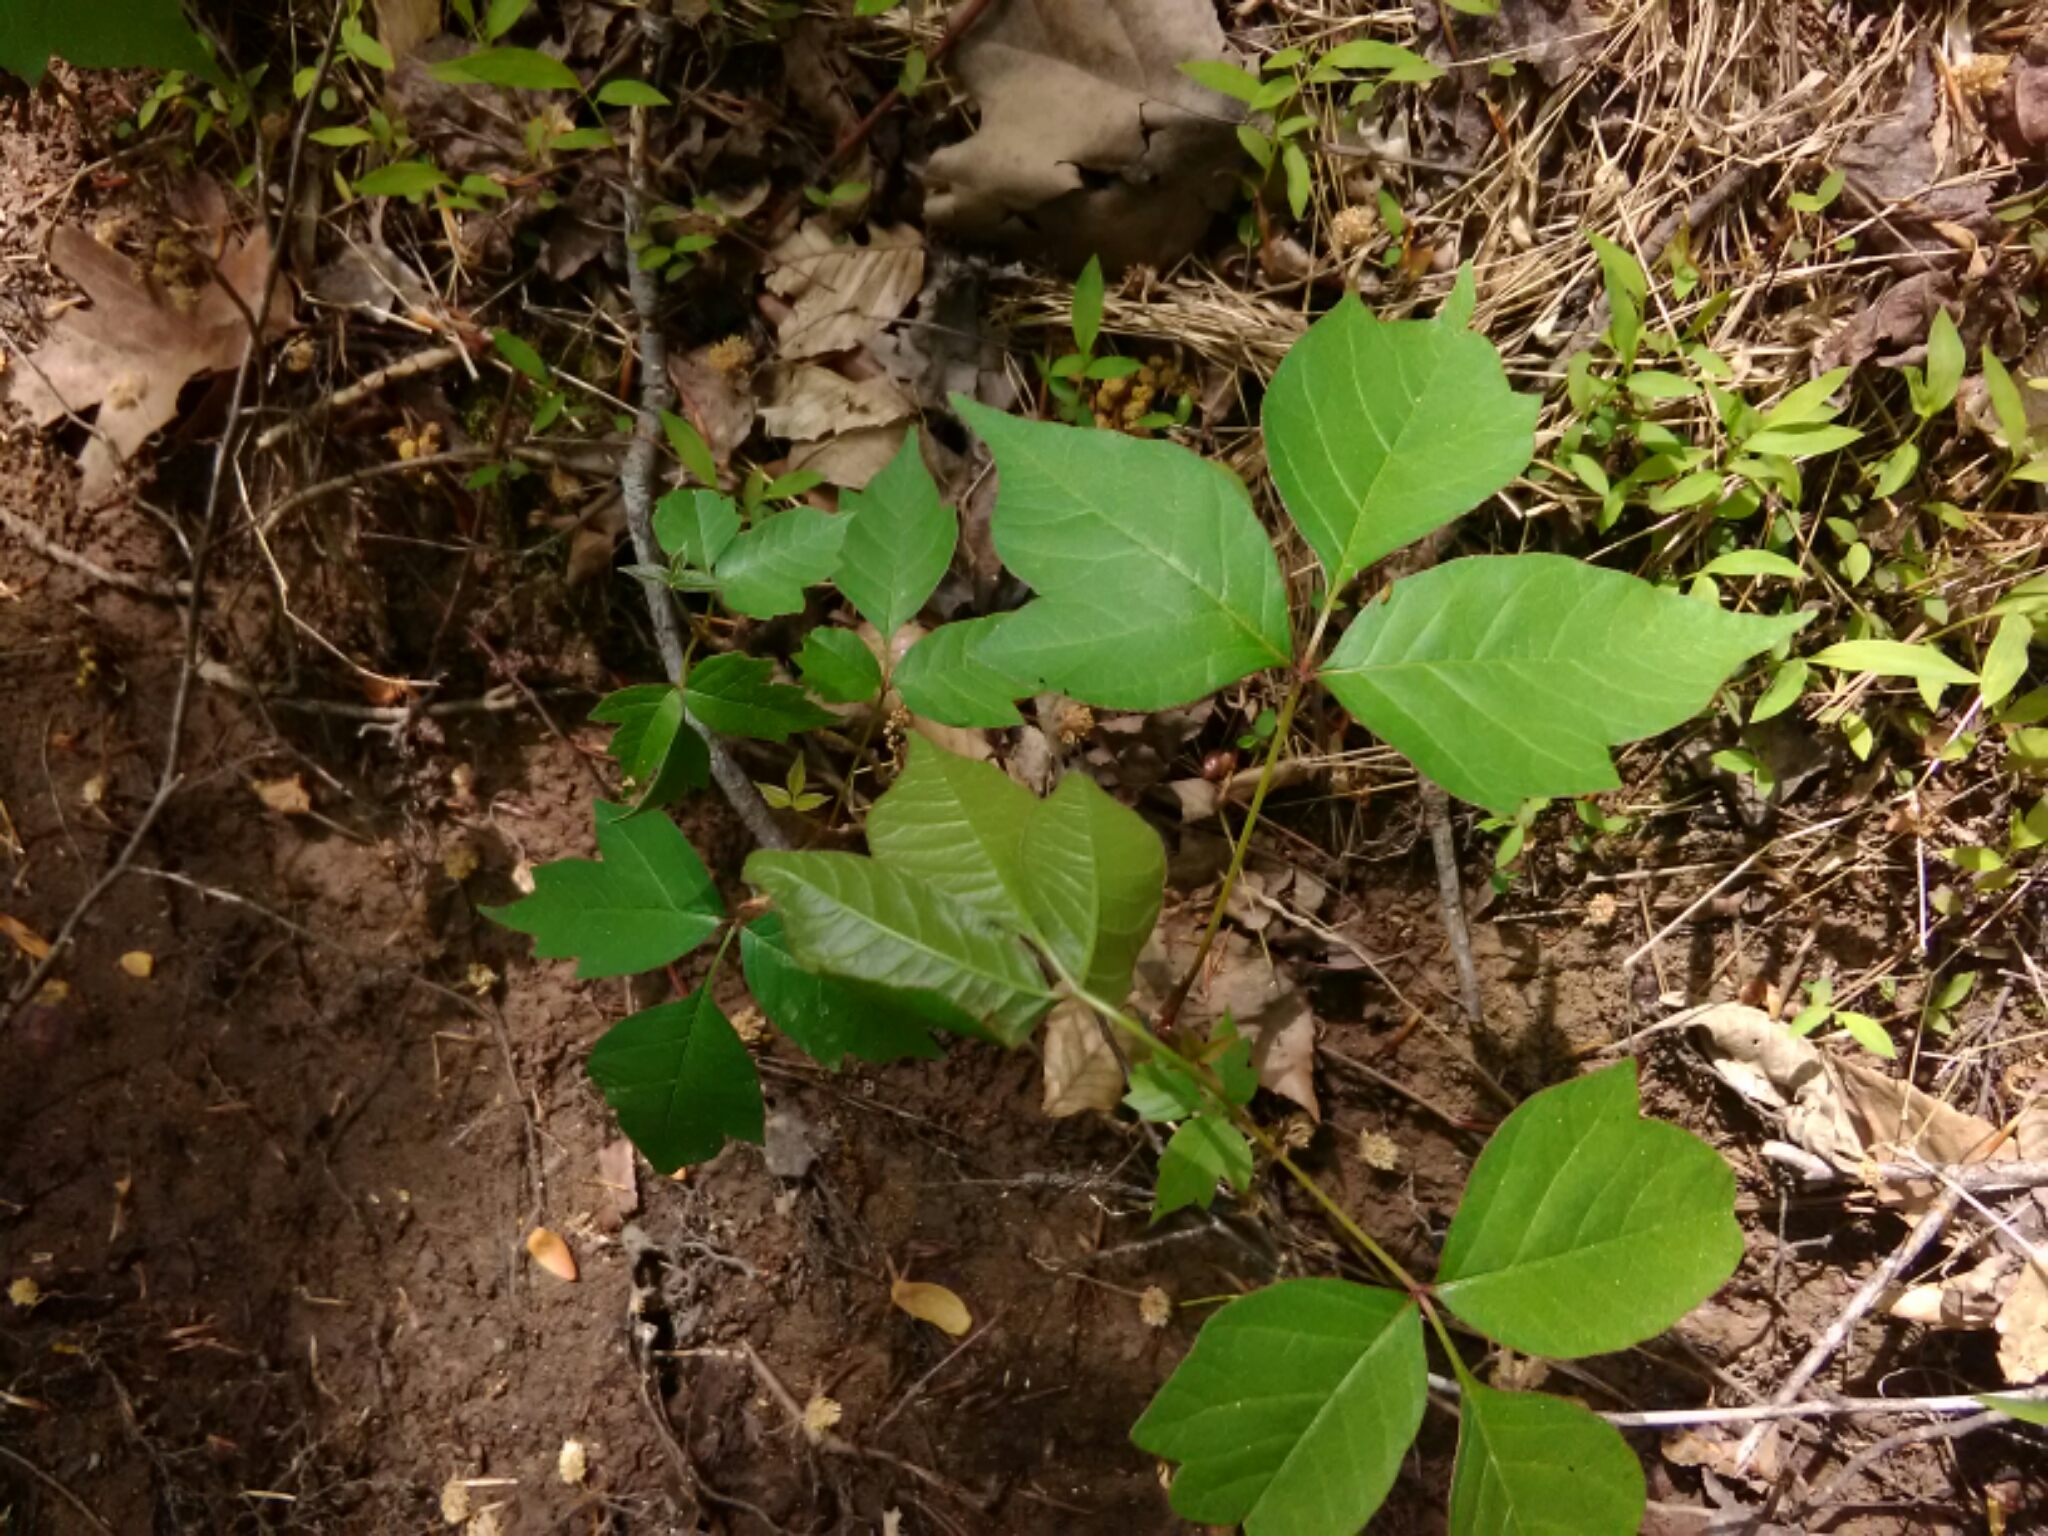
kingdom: Plantae
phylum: Tracheophyta
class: Magnoliopsida
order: Sapindales
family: Anacardiaceae
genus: Toxicodendron
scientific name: Toxicodendron radicans
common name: Poison ivy
